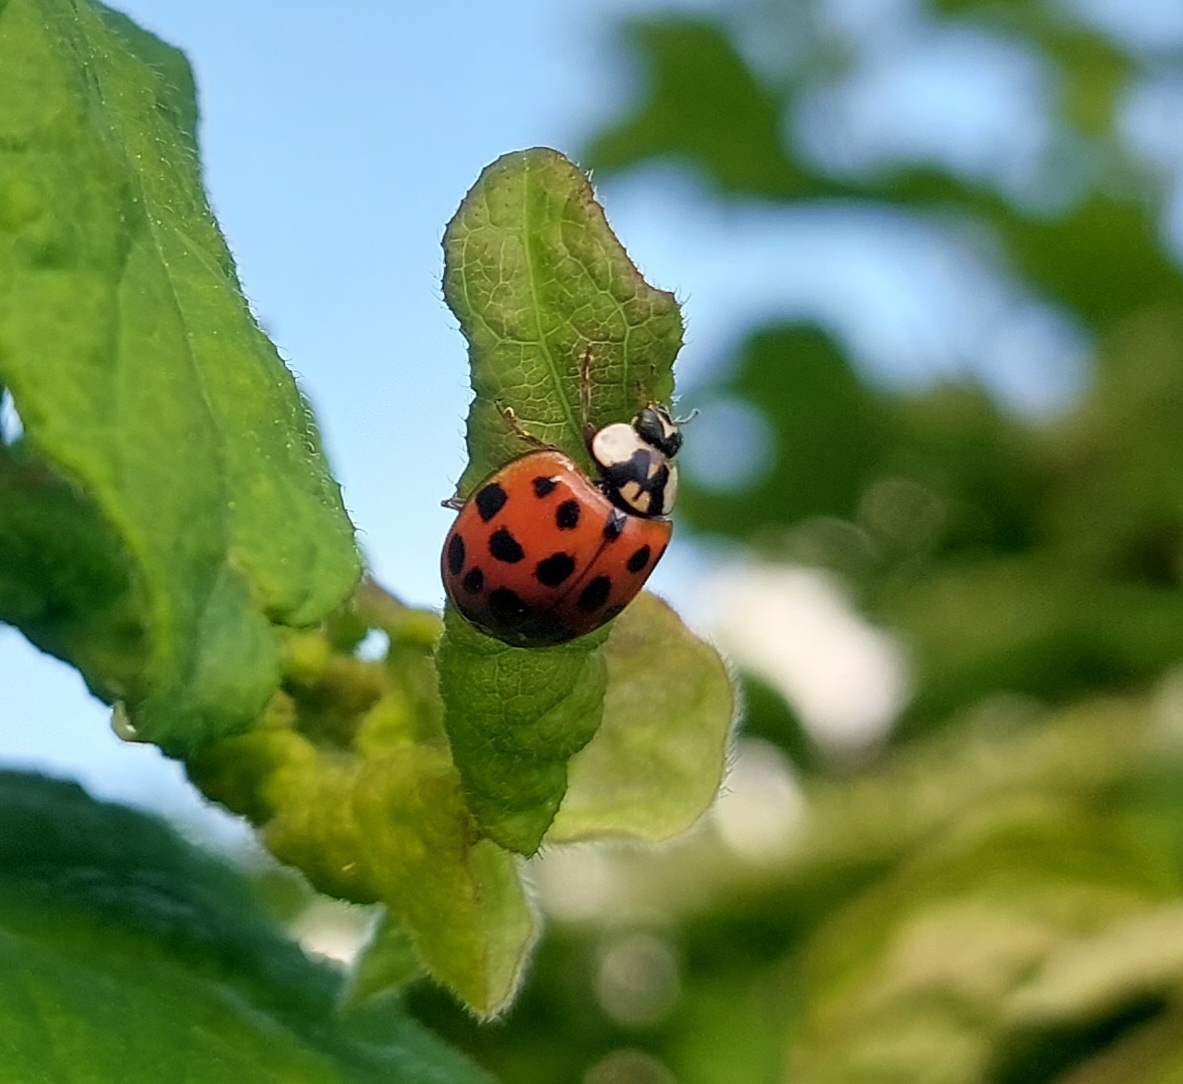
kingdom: Animalia
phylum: Arthropoda
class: Insecta
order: Coleoptera
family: Coccinellidae
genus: Harmonia
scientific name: Harmonia axyridis
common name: Harlequin ladybird
